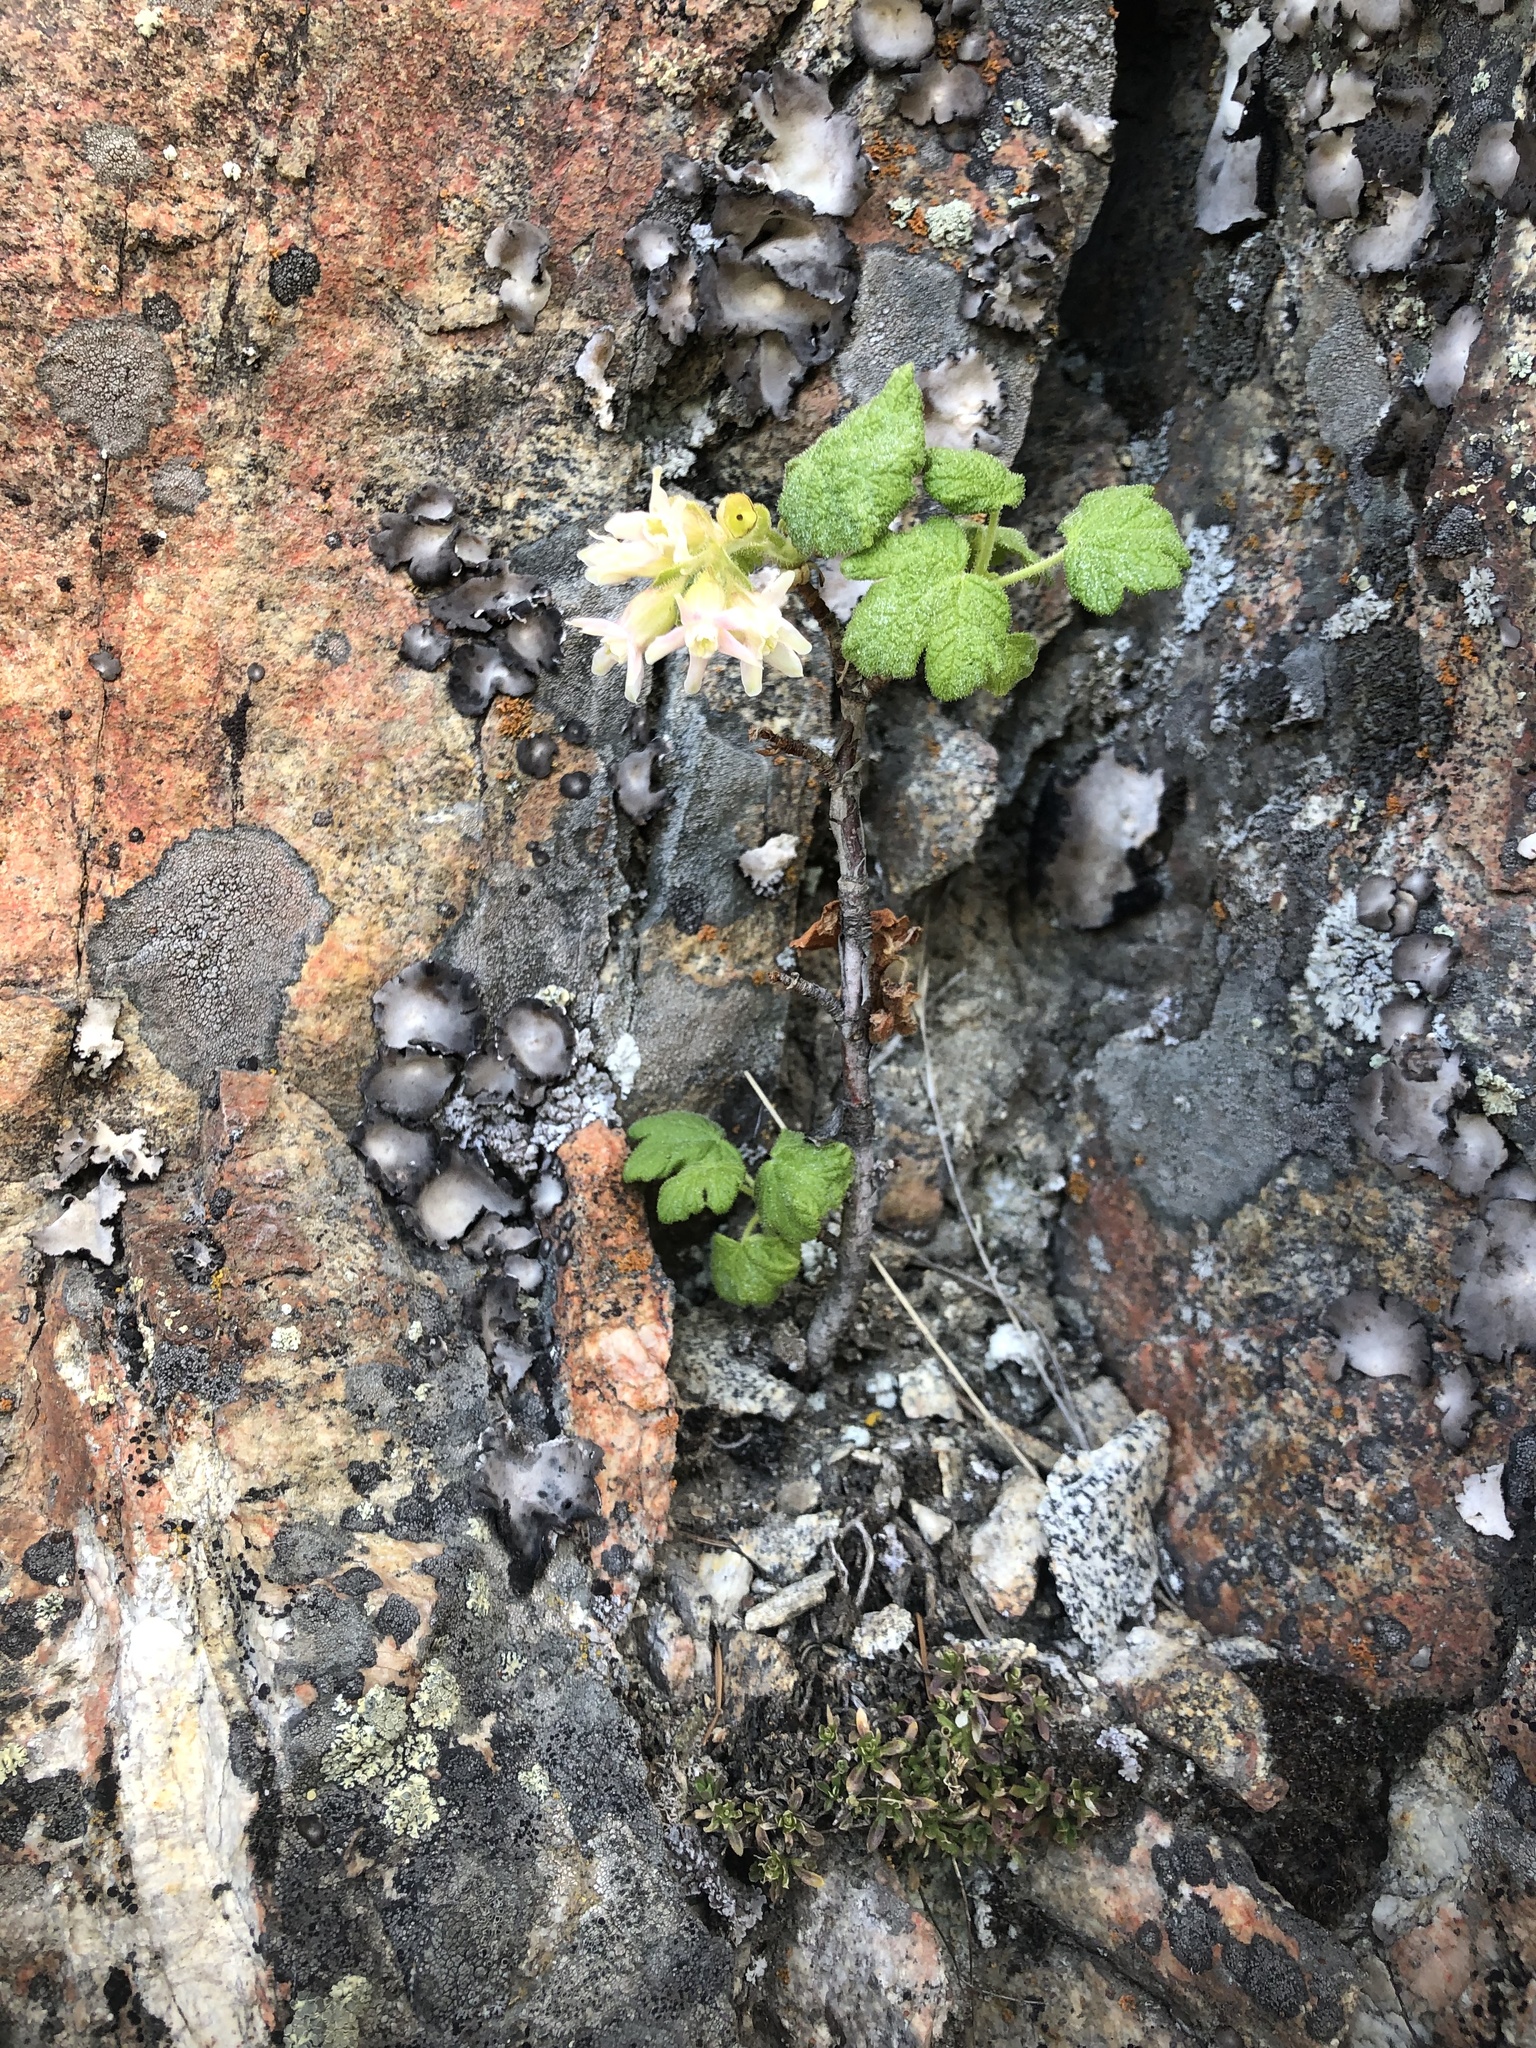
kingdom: Plantae
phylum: Tracheophyta
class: Magnoliopsida
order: Saxifragales
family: Grossulariaceae
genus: Ribes
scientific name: Ribes viscosissimum
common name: Sticky currant
